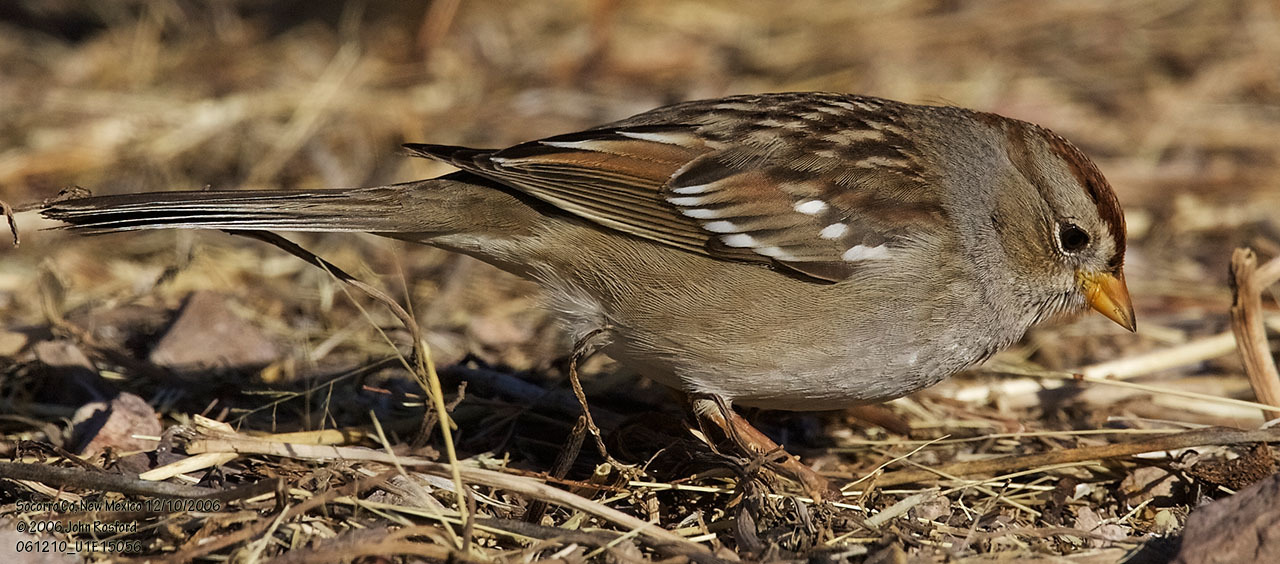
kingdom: Animalia
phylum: Chordata
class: Aves
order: Passeriformes
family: Passerellidae
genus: Zonotrichia
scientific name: Zonotrichia leucophrys
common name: White-crowned sparrow
